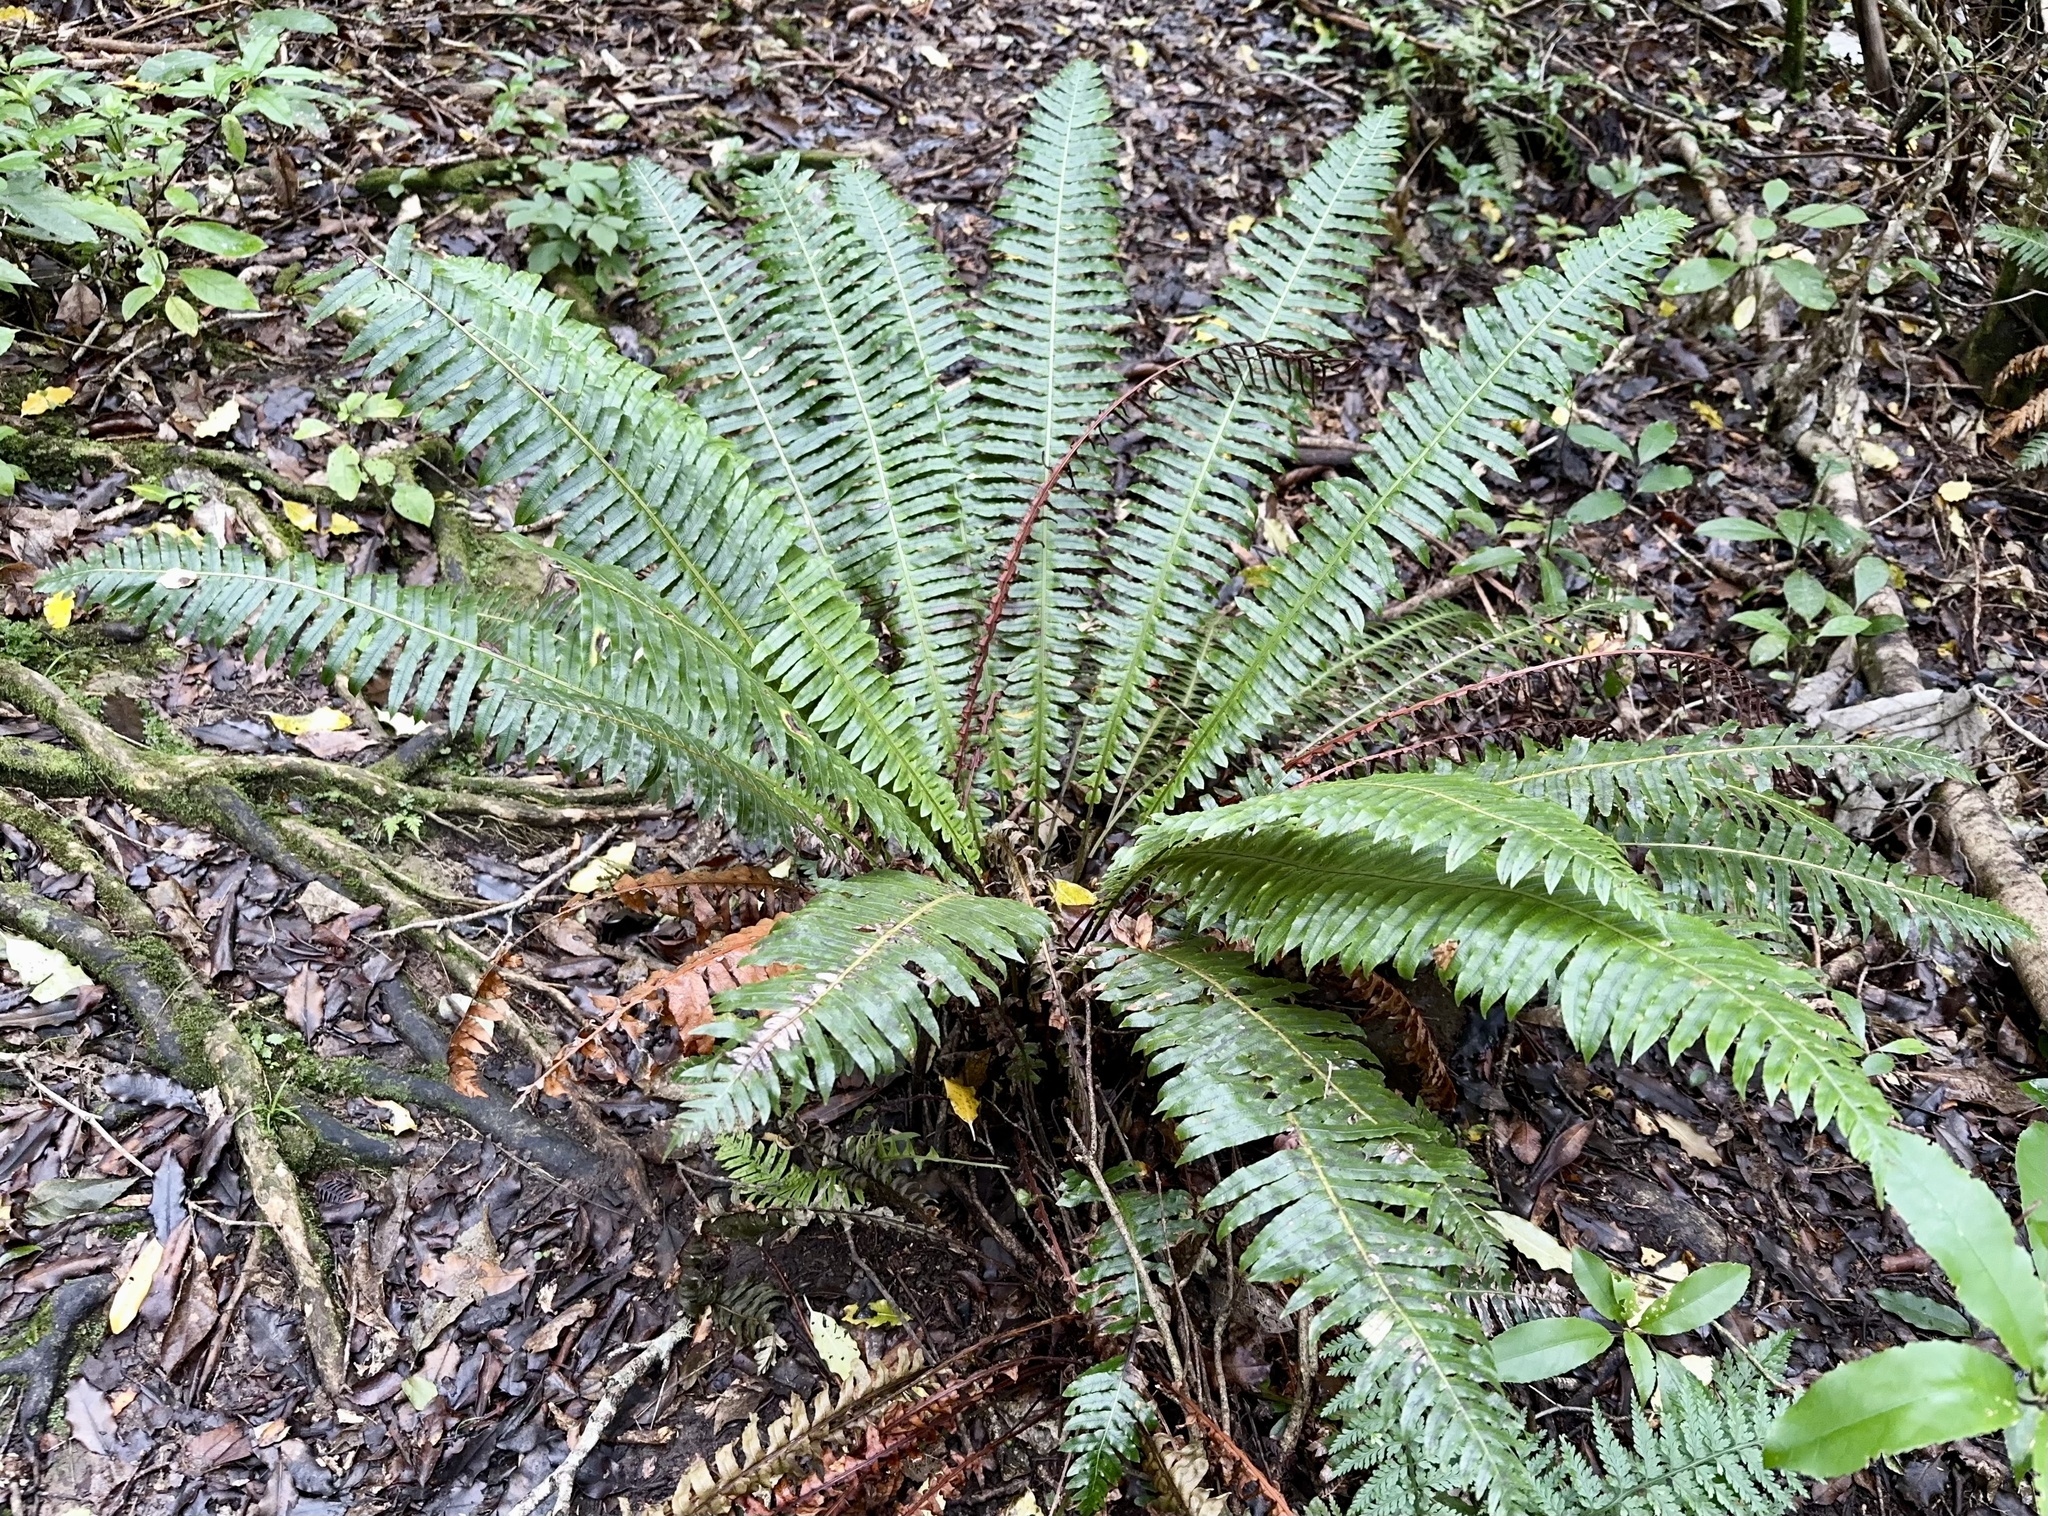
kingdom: Plantae
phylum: Tracheophyta
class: Polypodiopsida
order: Polypodiales
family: Blechnaceae
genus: Lomaria
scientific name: Lomaria discolor
